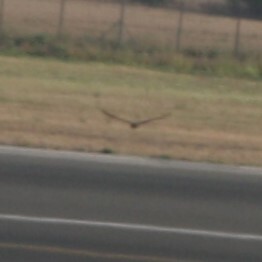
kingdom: Animalia
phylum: Chordata
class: Aves
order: Accipitriformes
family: Accipitridae
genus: Circus
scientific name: Circus aeruginosus
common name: Western marsh harrier
